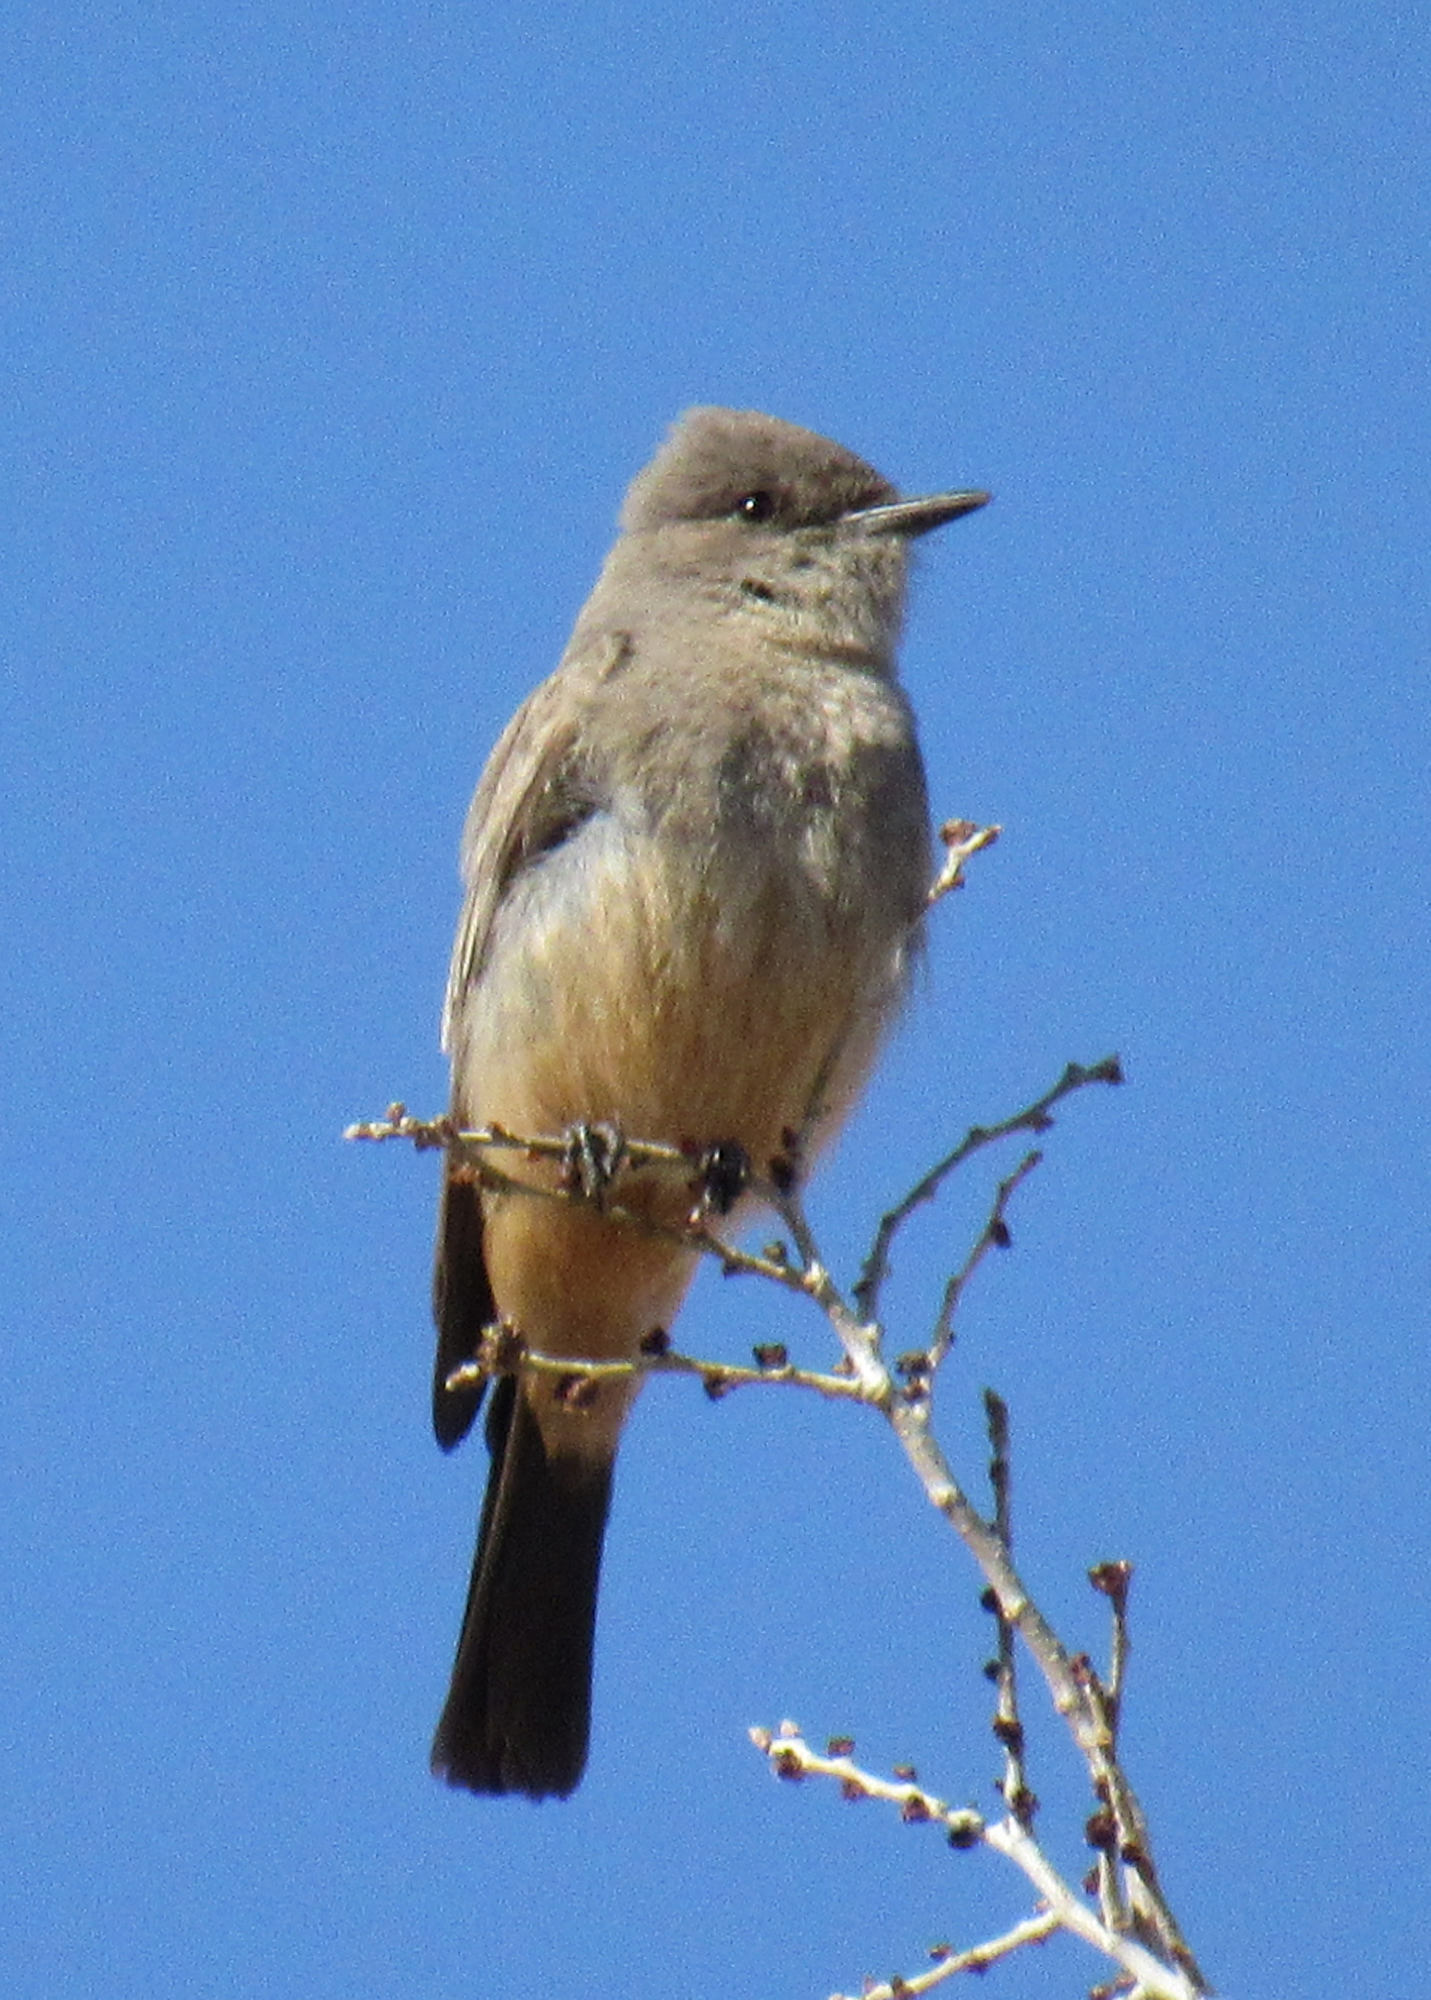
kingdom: Animalia
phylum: Chordata
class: Aves
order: Passeriformes
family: Tyrannidae
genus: Sayornis
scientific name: Sayornis saya
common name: Say's phoebe
